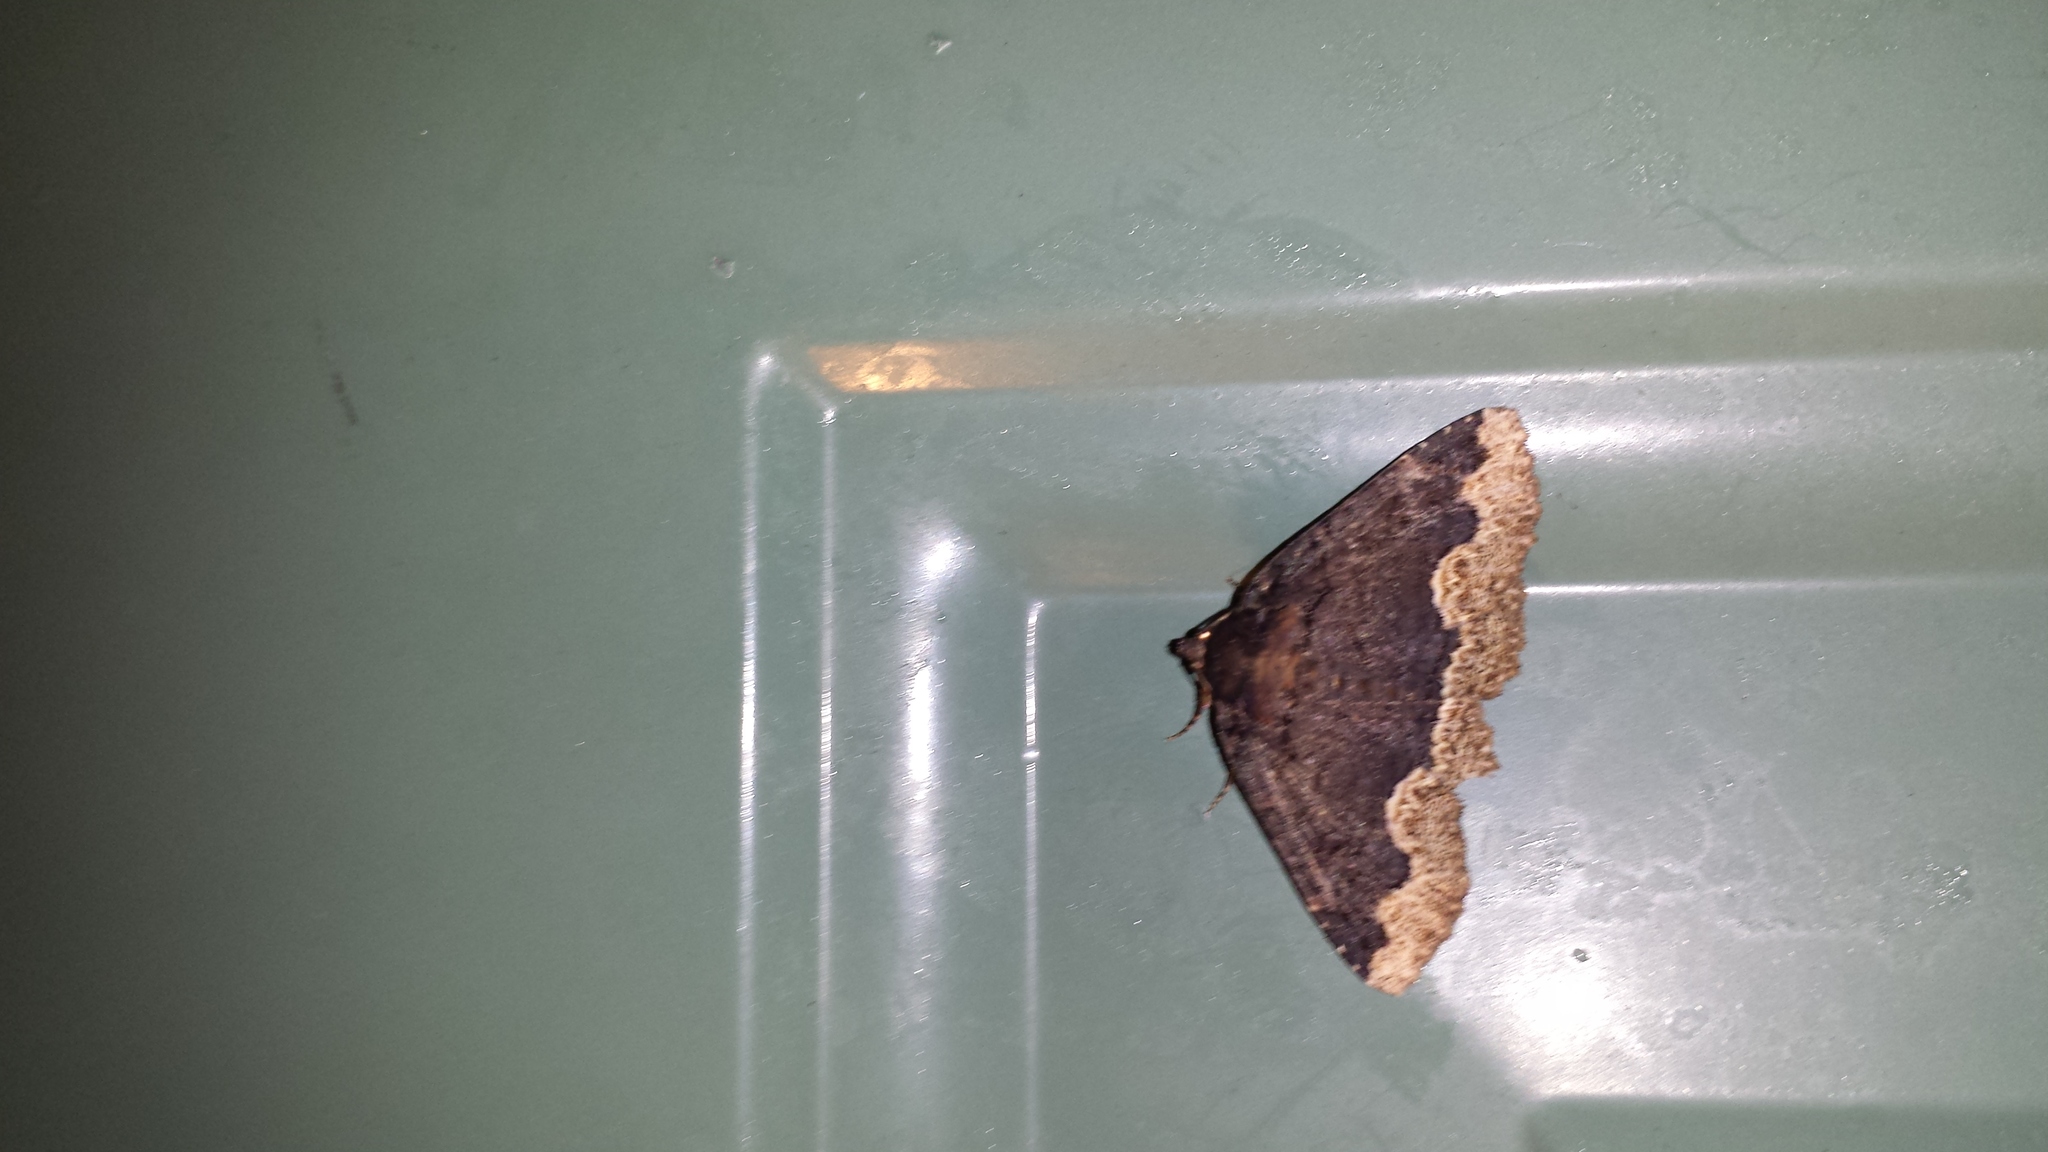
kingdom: Animalia
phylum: Arthropoda
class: Insecta
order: Lepidoptera
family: Erebidae
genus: Zale
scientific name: Zale horrida
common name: Horrid zale moth
